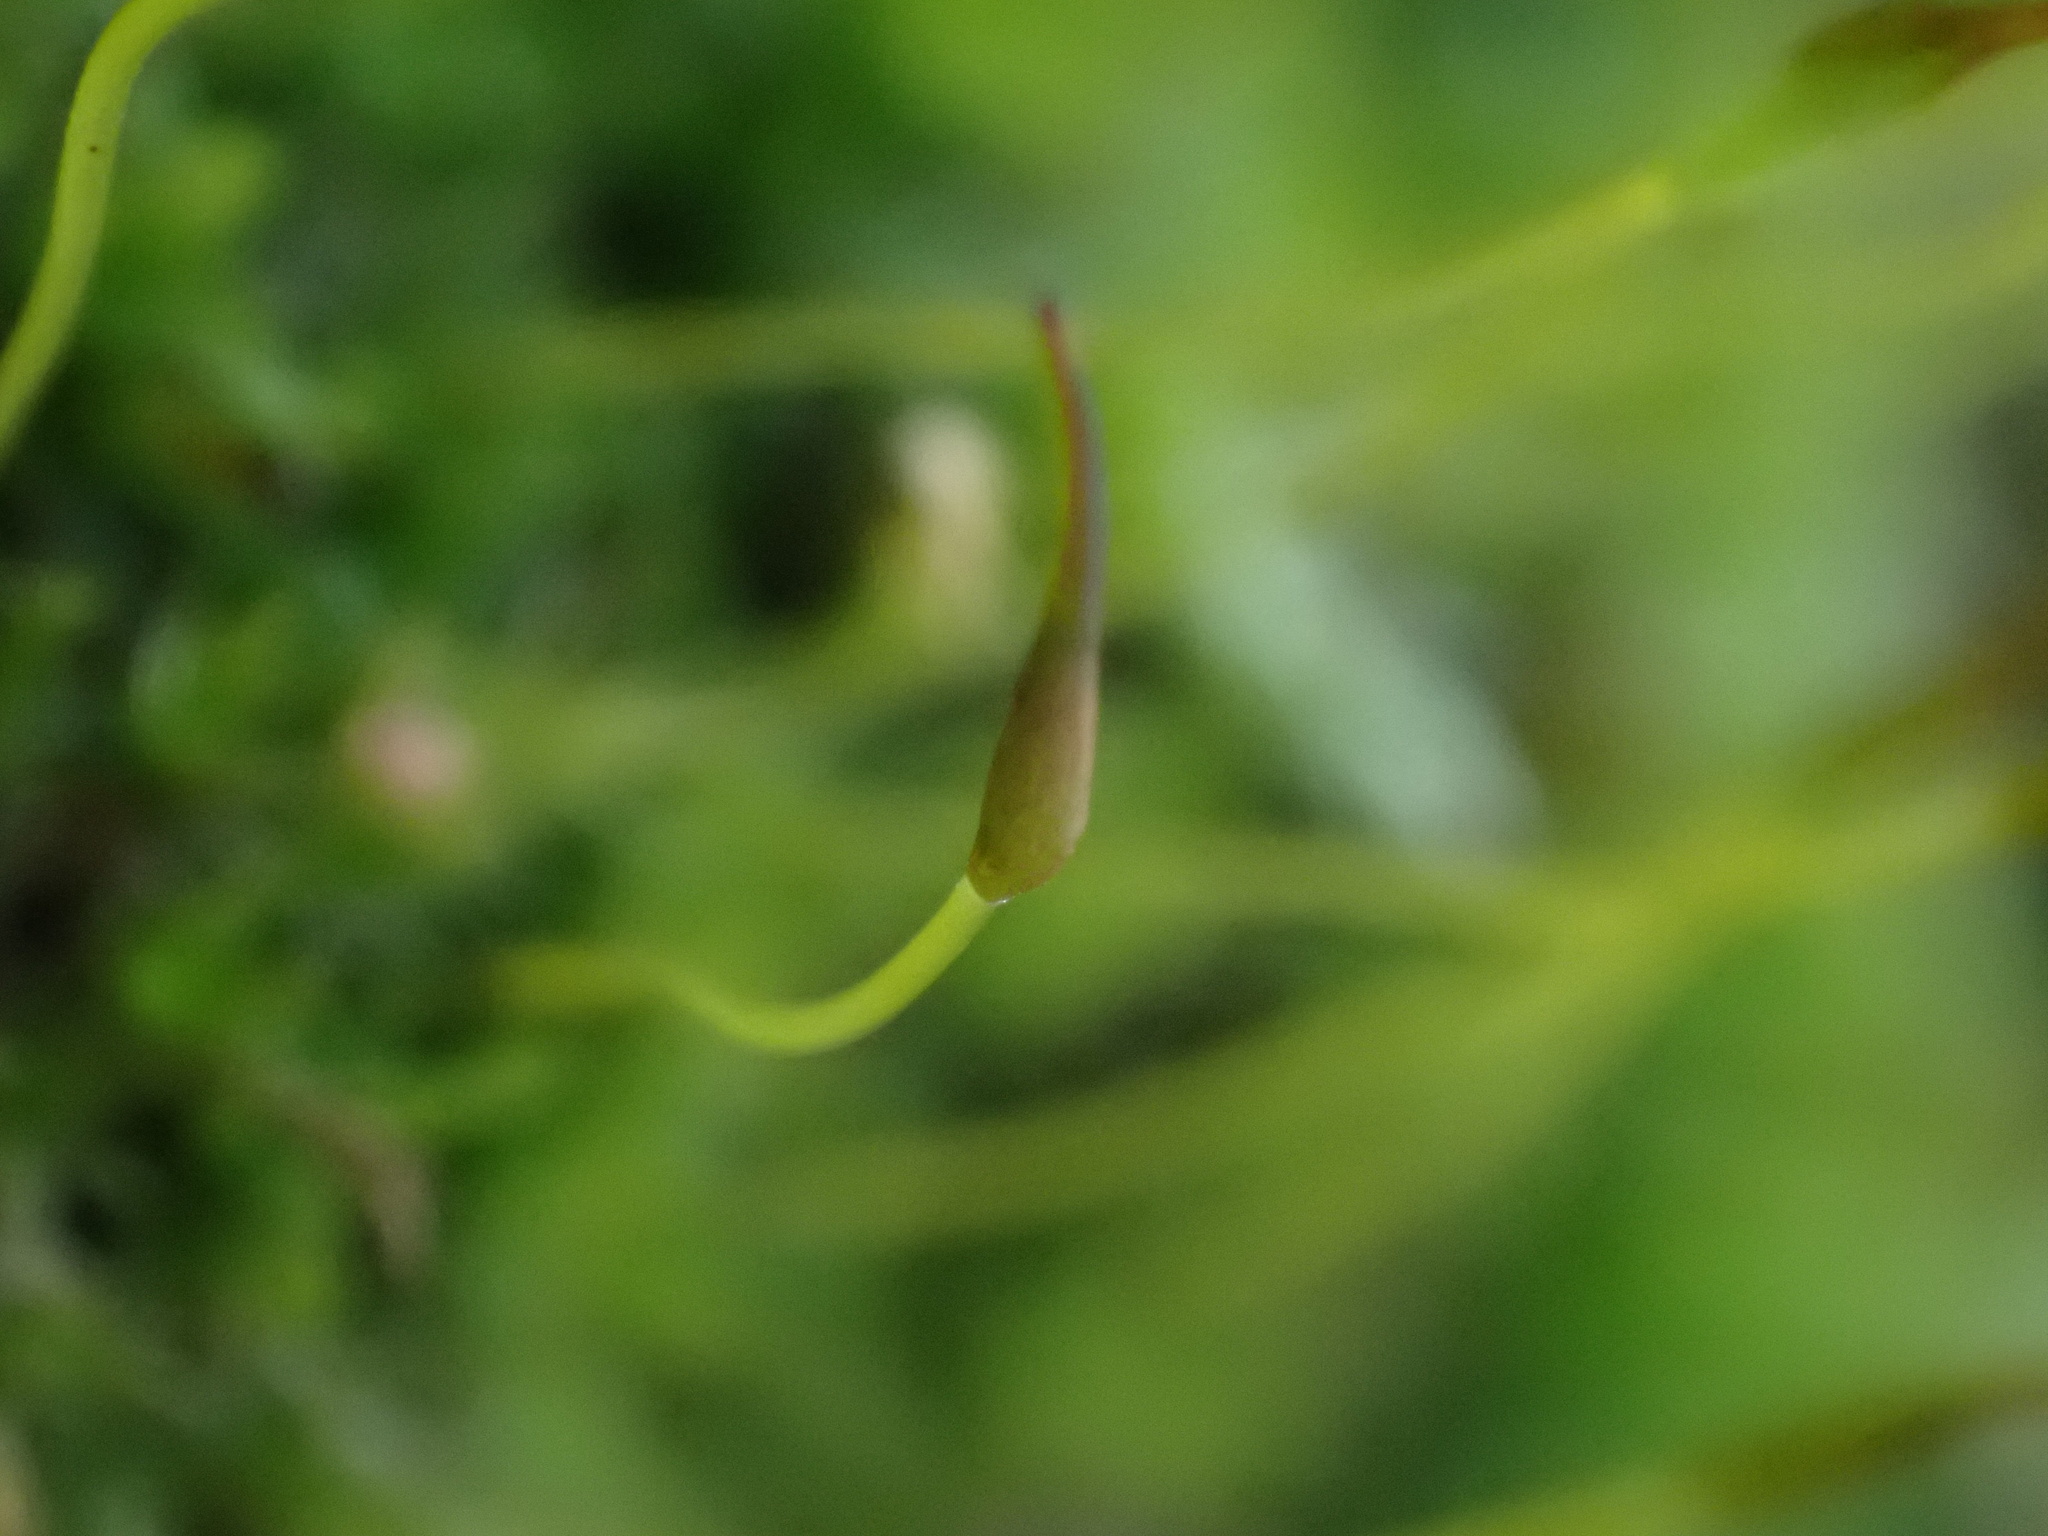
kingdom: Plantae
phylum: Bryophyta
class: Bryopsida
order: Pottiales
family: Pottiaceae
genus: Tortula
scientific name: Tortula muralis
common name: Wall screw-moss
